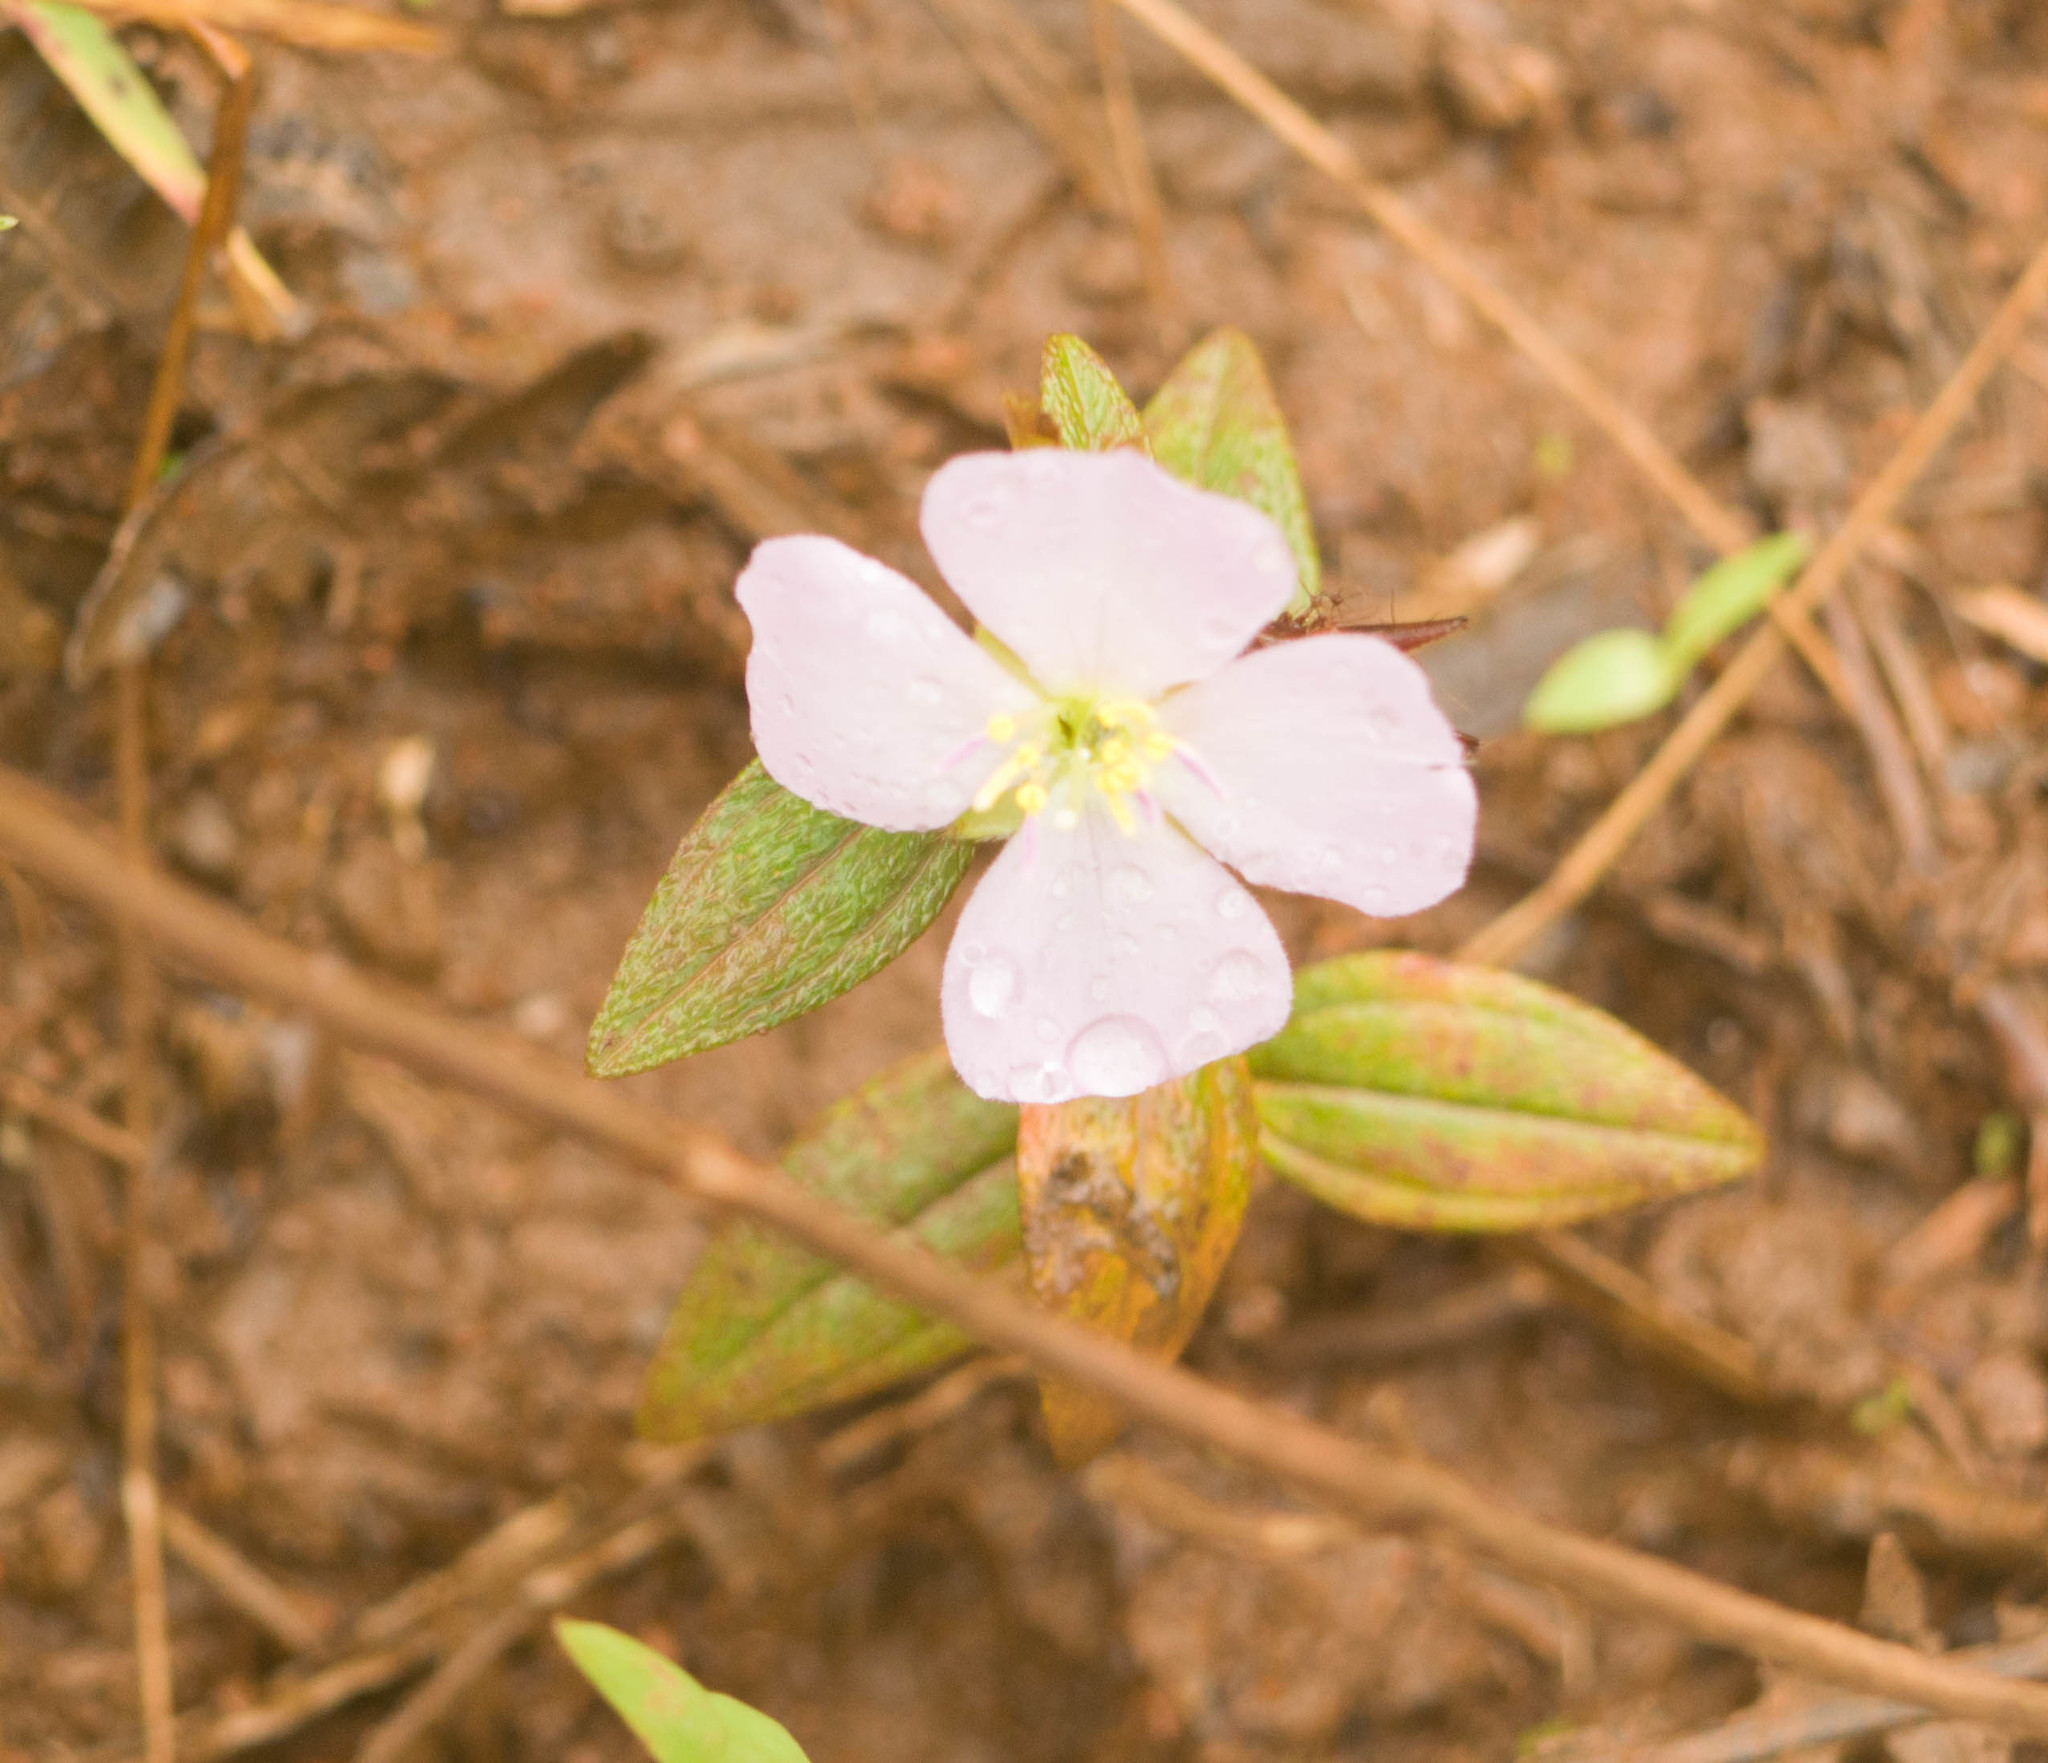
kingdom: Plantae
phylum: Tracheophyta
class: Magnoliopsida
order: Myrtales
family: Melastomataceae
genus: Pterolepis
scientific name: Pterolepis glomerata
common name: False meadowbeauty
